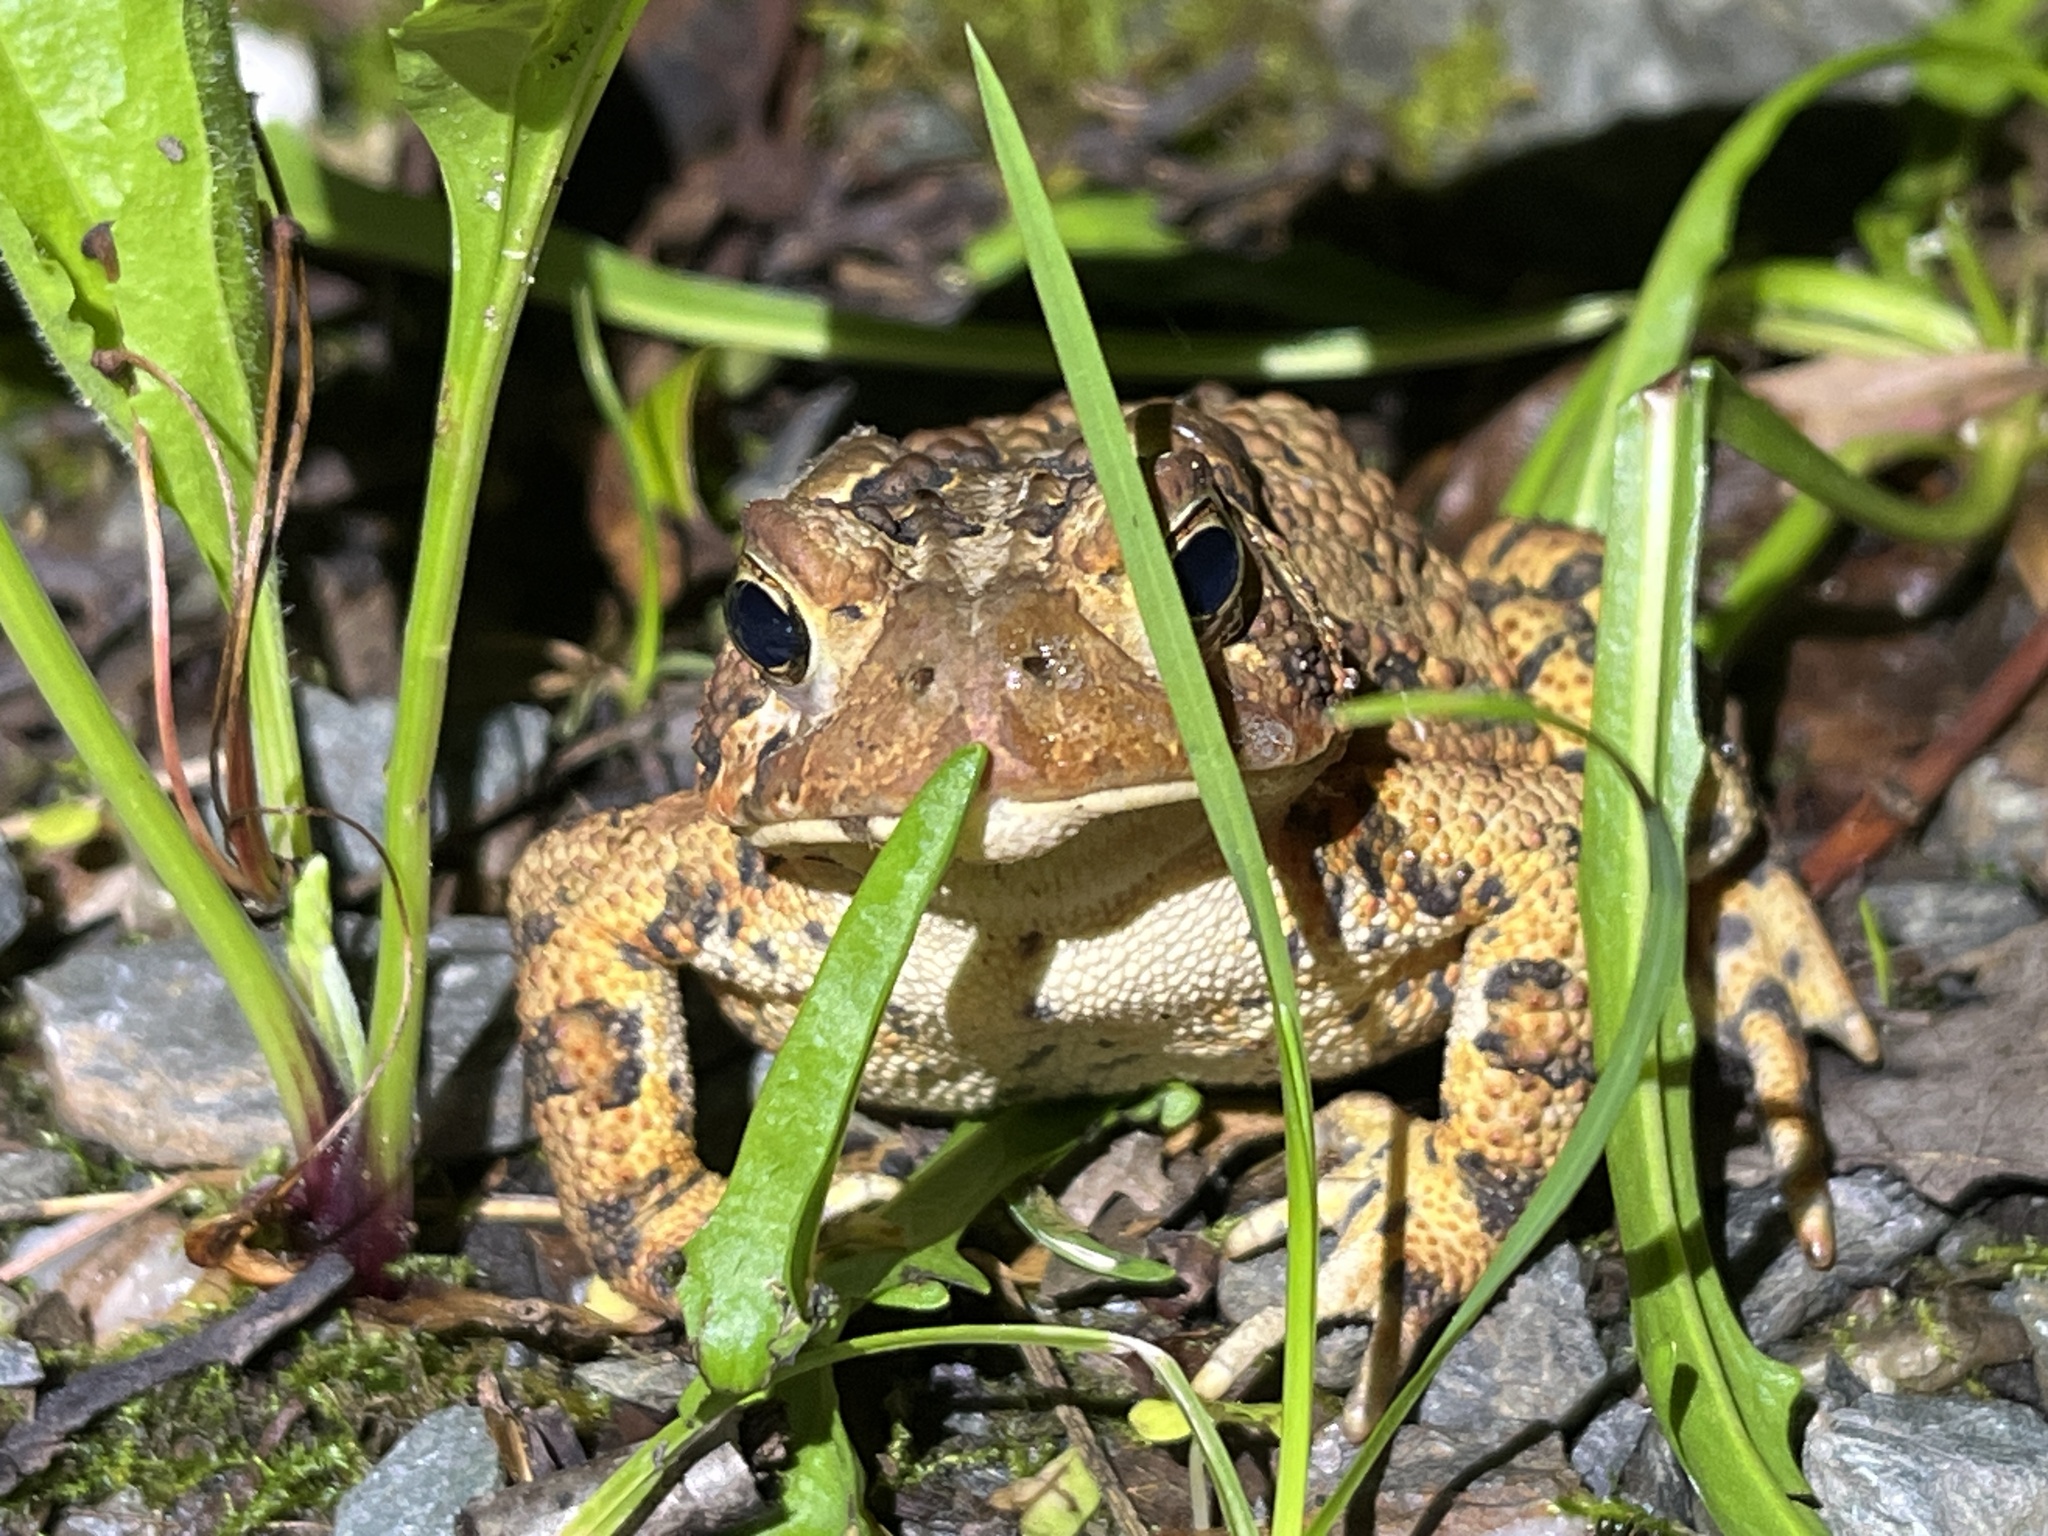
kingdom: Animalia
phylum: Chordata
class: Amphibia
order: Anura
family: Bufonidae
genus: Anaxyrus
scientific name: Anaxyrus americanus
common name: American toad
